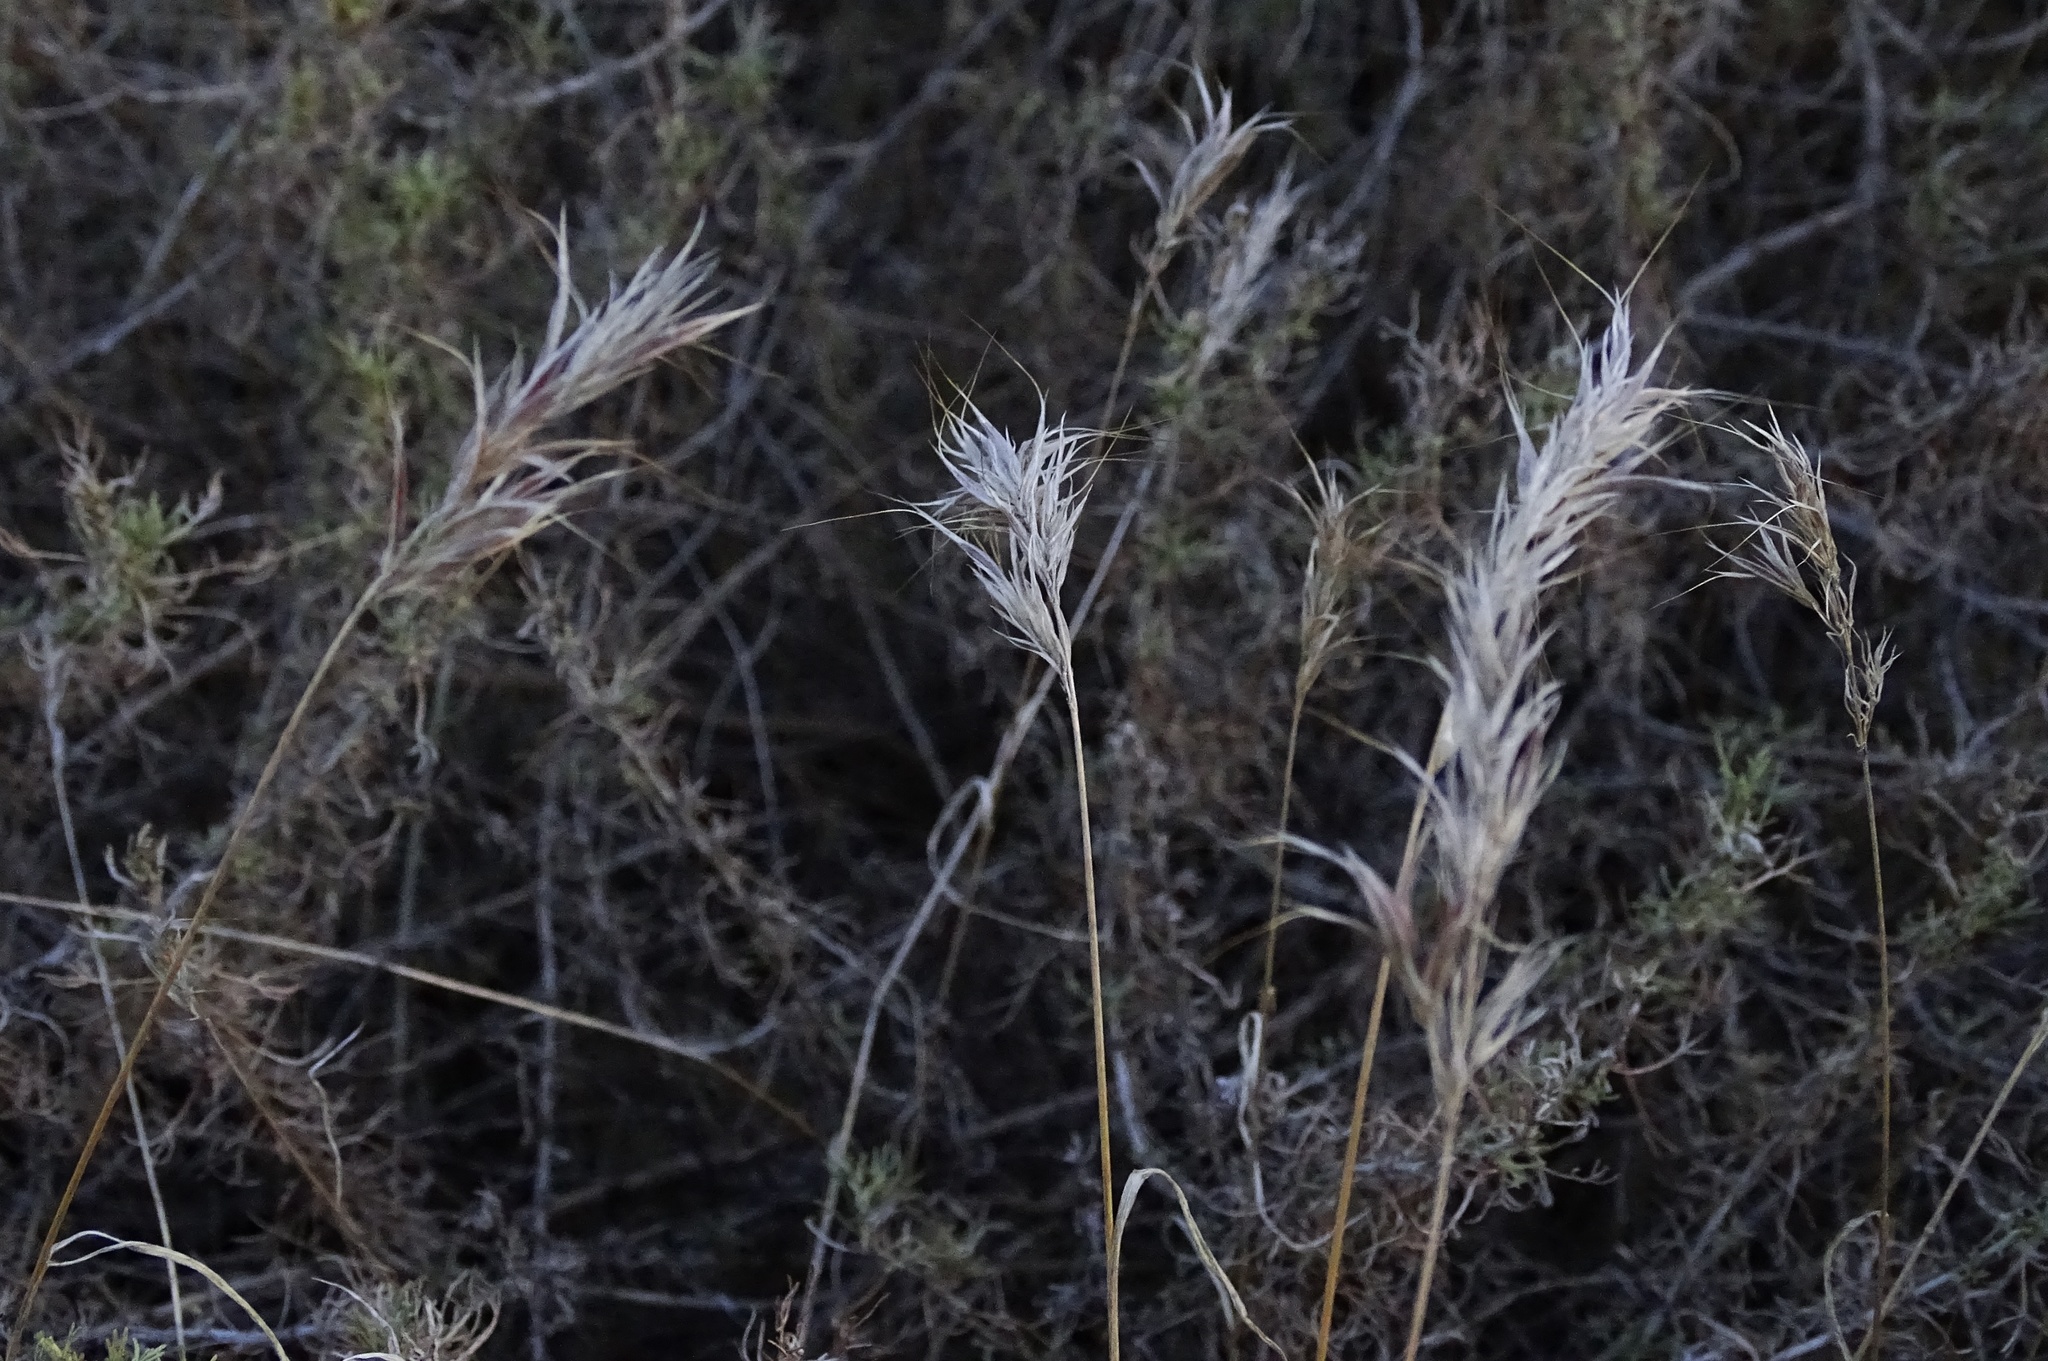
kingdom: Plantae
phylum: Tracheophyta
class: Liliopsida
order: Poales
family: Poaceae
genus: Bromus
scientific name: Bromus madritensis
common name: Compact brome
